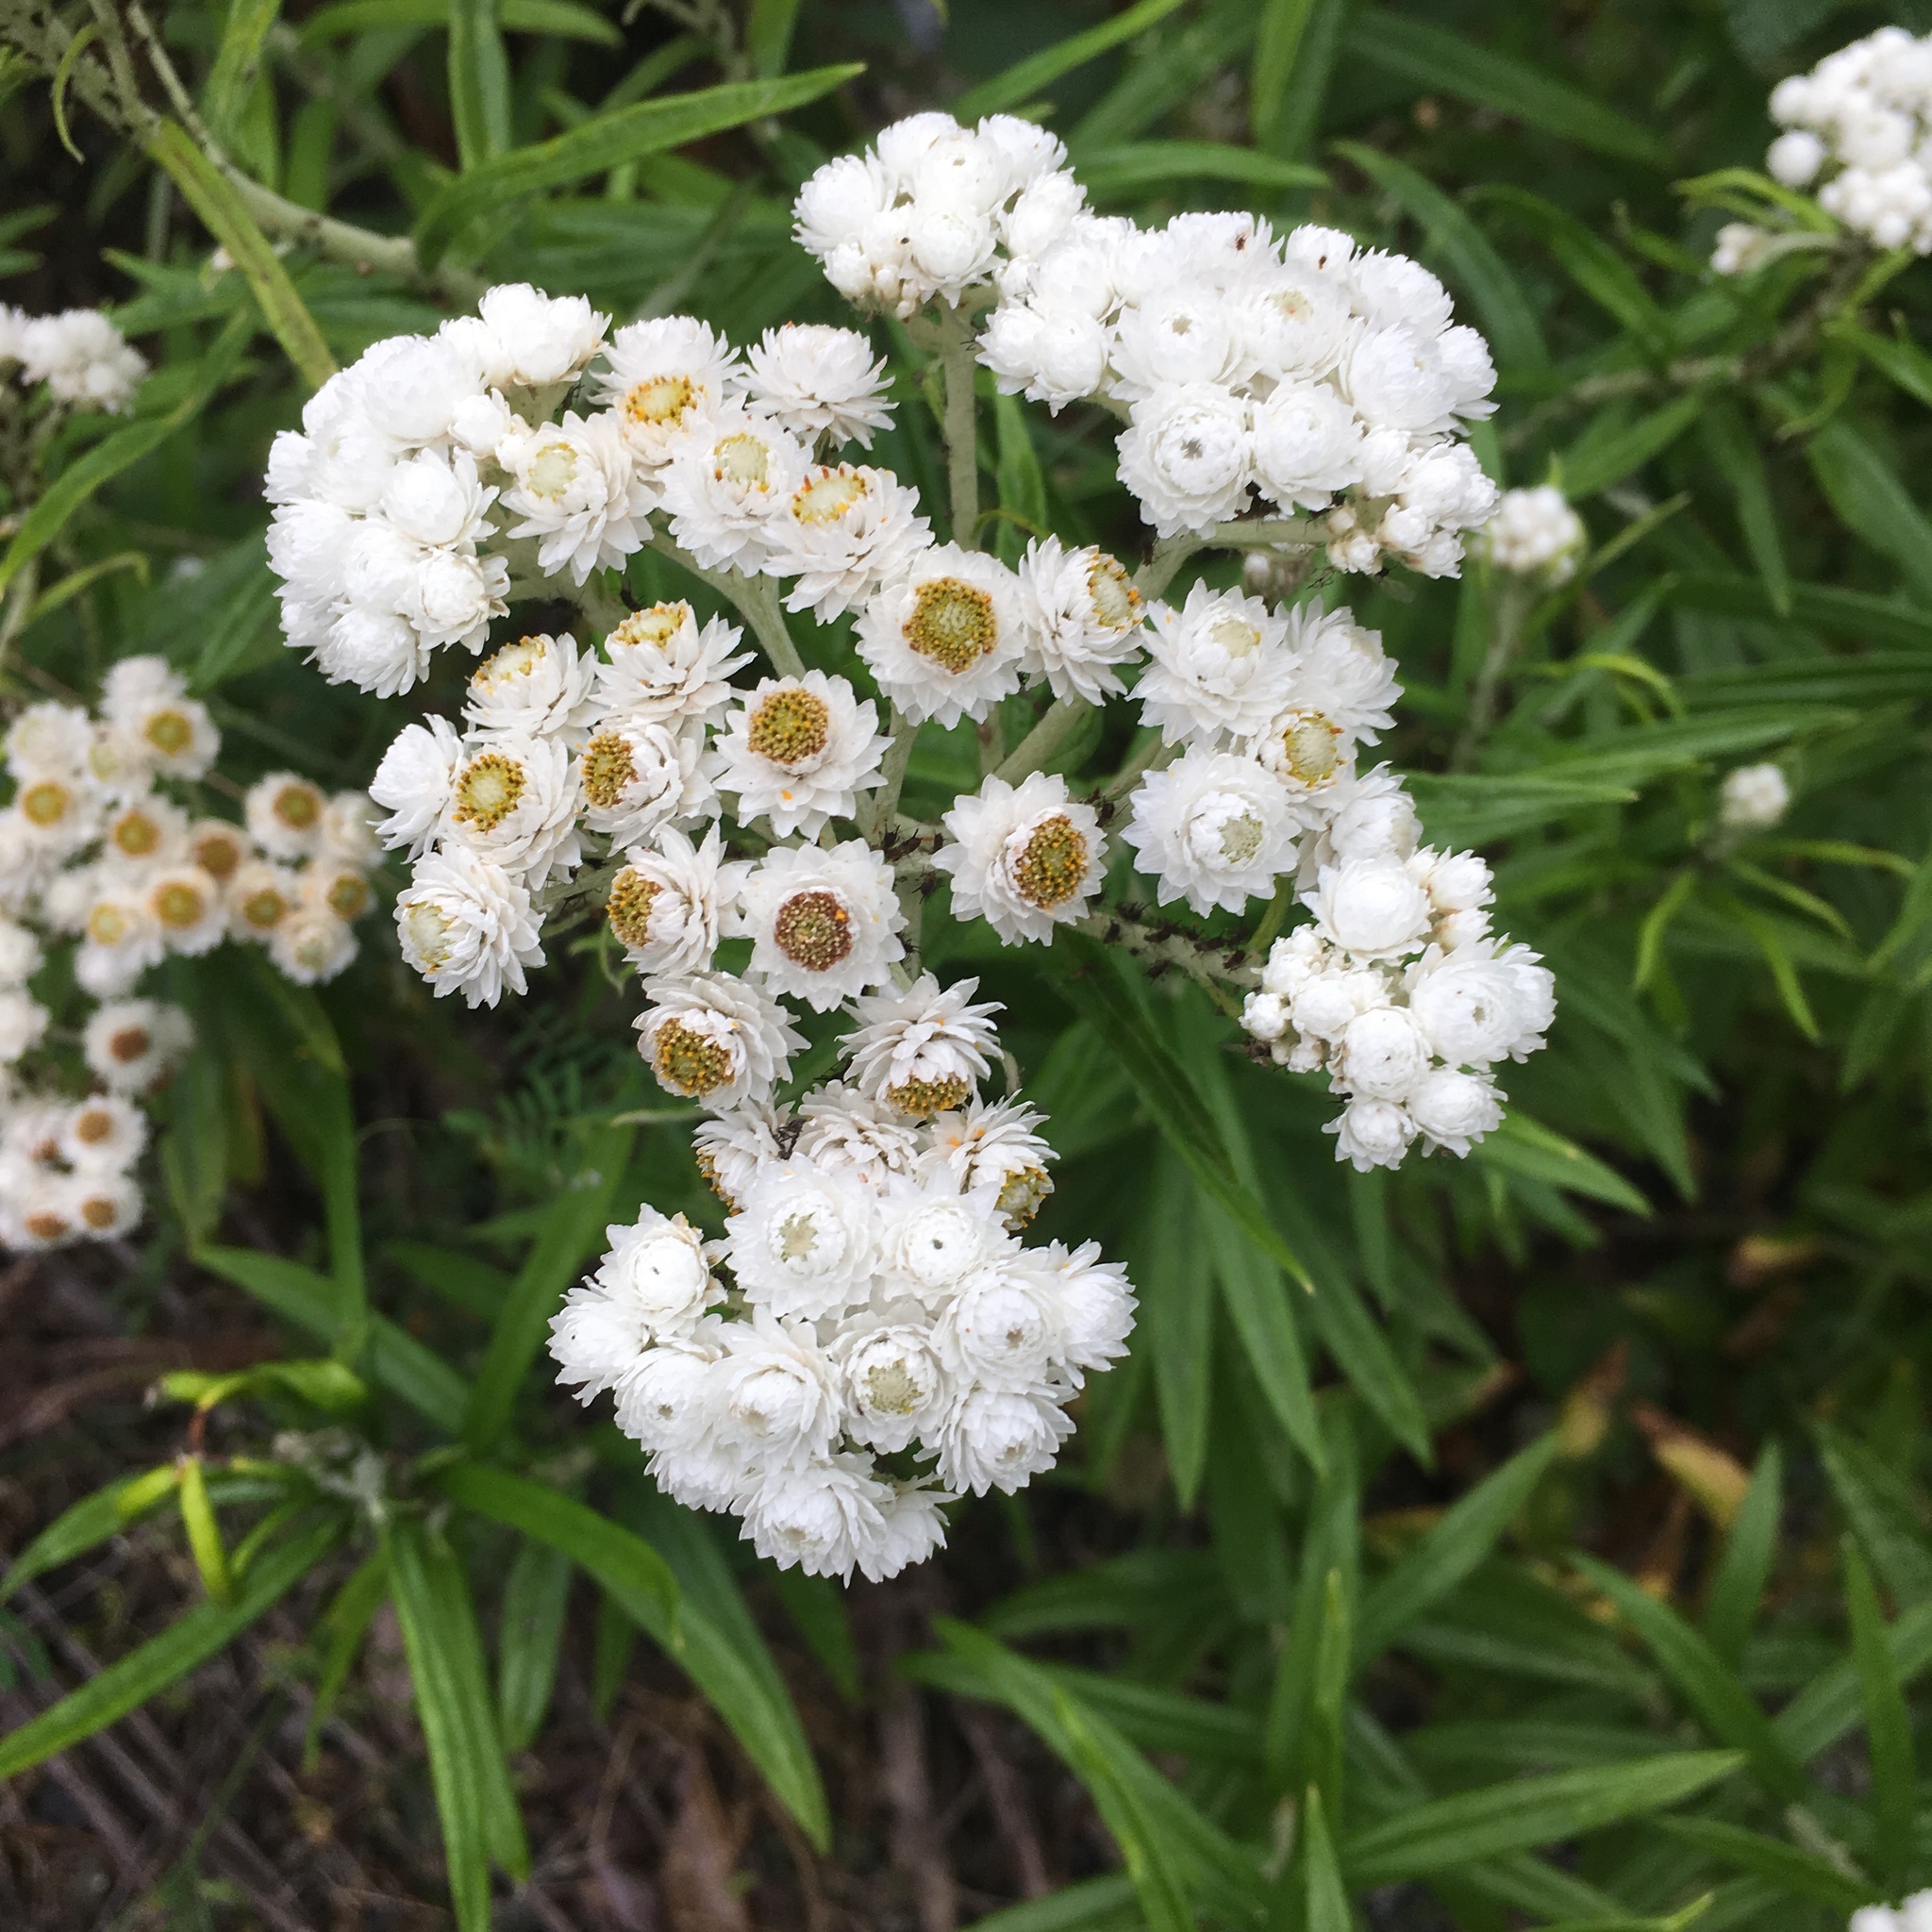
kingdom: Plantae
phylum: Tracheophyta
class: Magnoliopsida
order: Asterales
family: Asteraceae
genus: Anaphalis
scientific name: Anaphalis margaritacea
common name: Pearly everlasting
